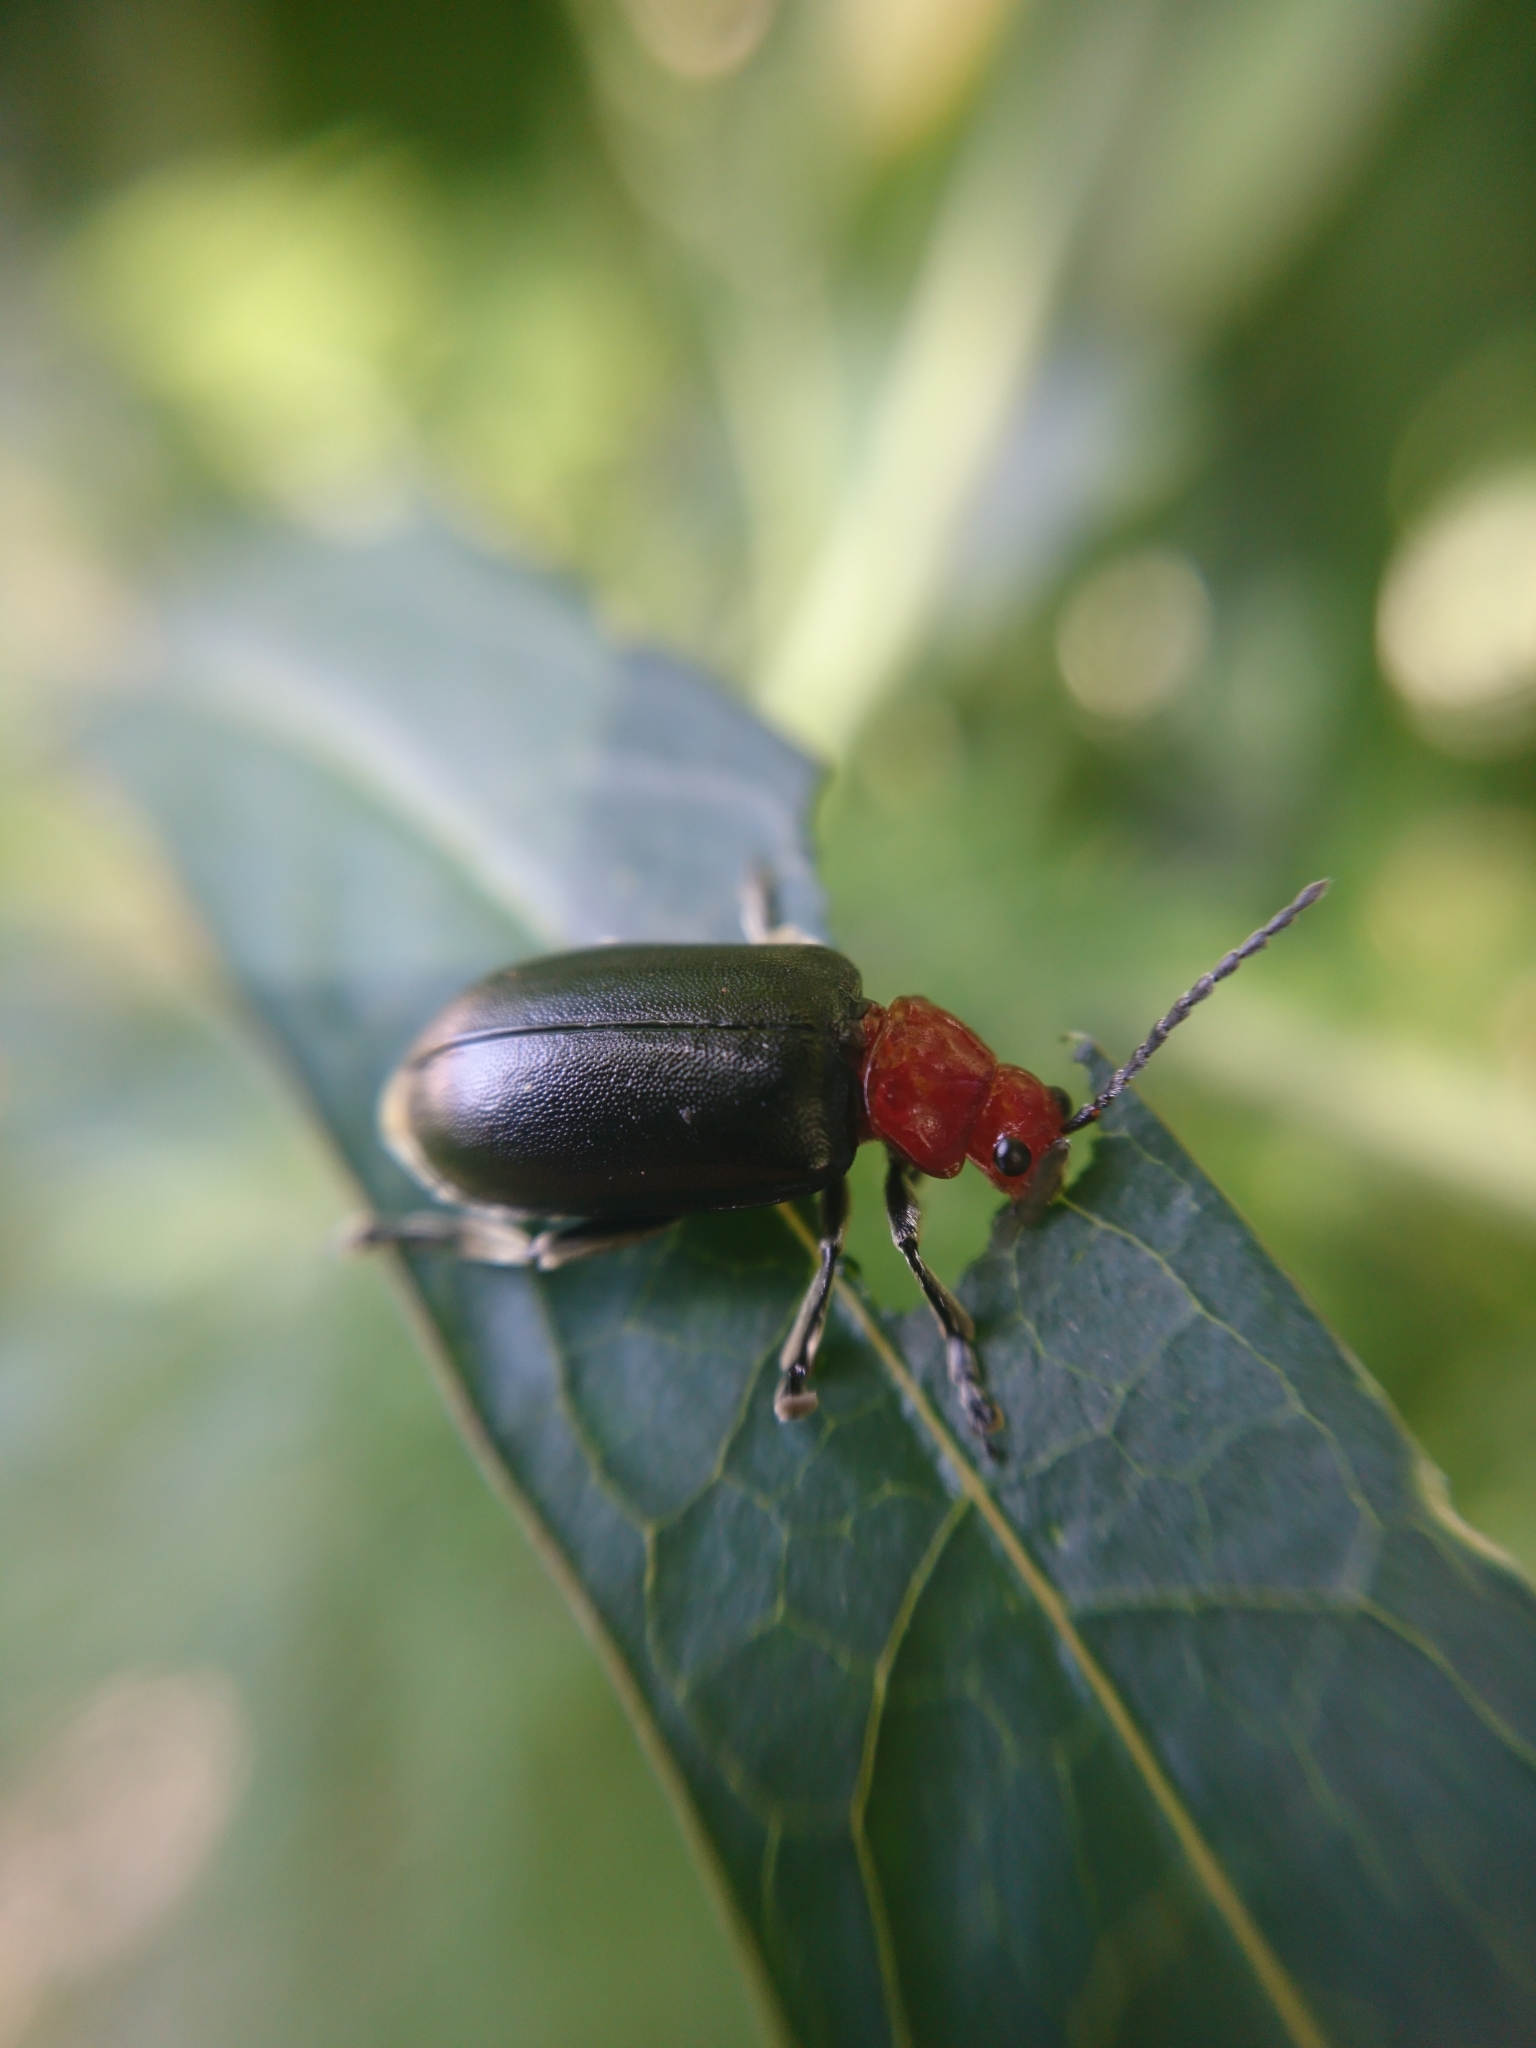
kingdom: Animalia
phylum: Arthropoda
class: Insecta
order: Coleoptera
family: Chrysomelidae
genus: Cacoscelis
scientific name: Cacoscelis
